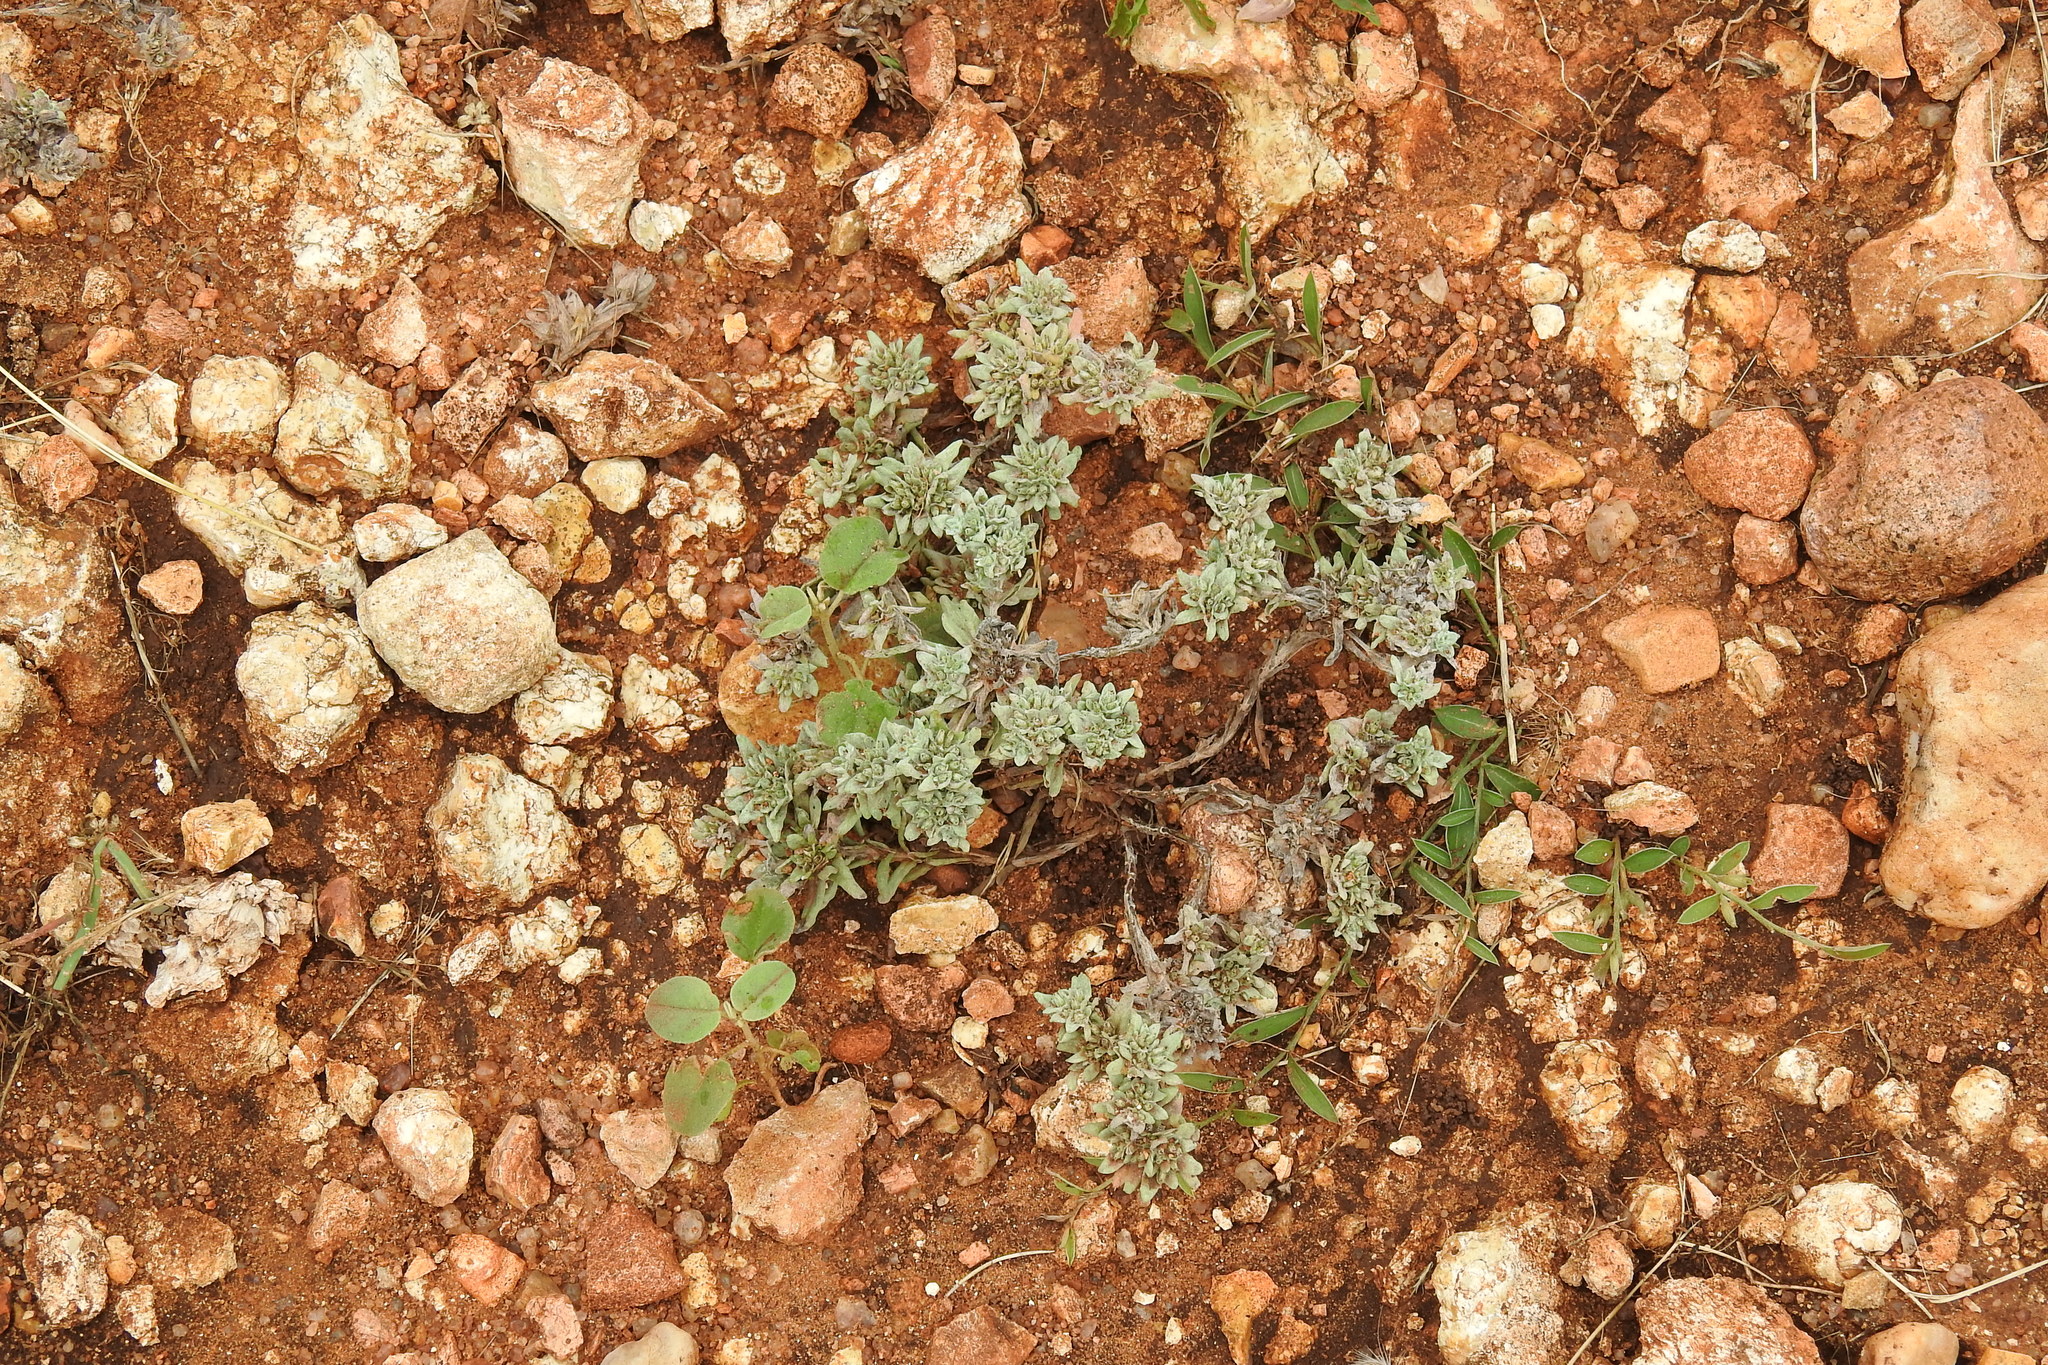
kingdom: Plantae
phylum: Tracheophyta
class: Magnoliopsida
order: Asterales
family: Asteraceae
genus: Diaperia
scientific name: Diaperia prolifera
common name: Big-head rabbit-tobacco
